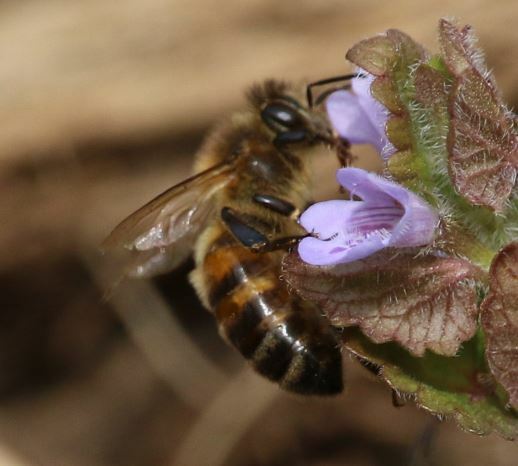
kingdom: Animalia
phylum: Arthropoda
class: Insecta
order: Hymenoptera
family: Apidae
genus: Apis
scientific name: Apis mellifera
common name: Honey bee
